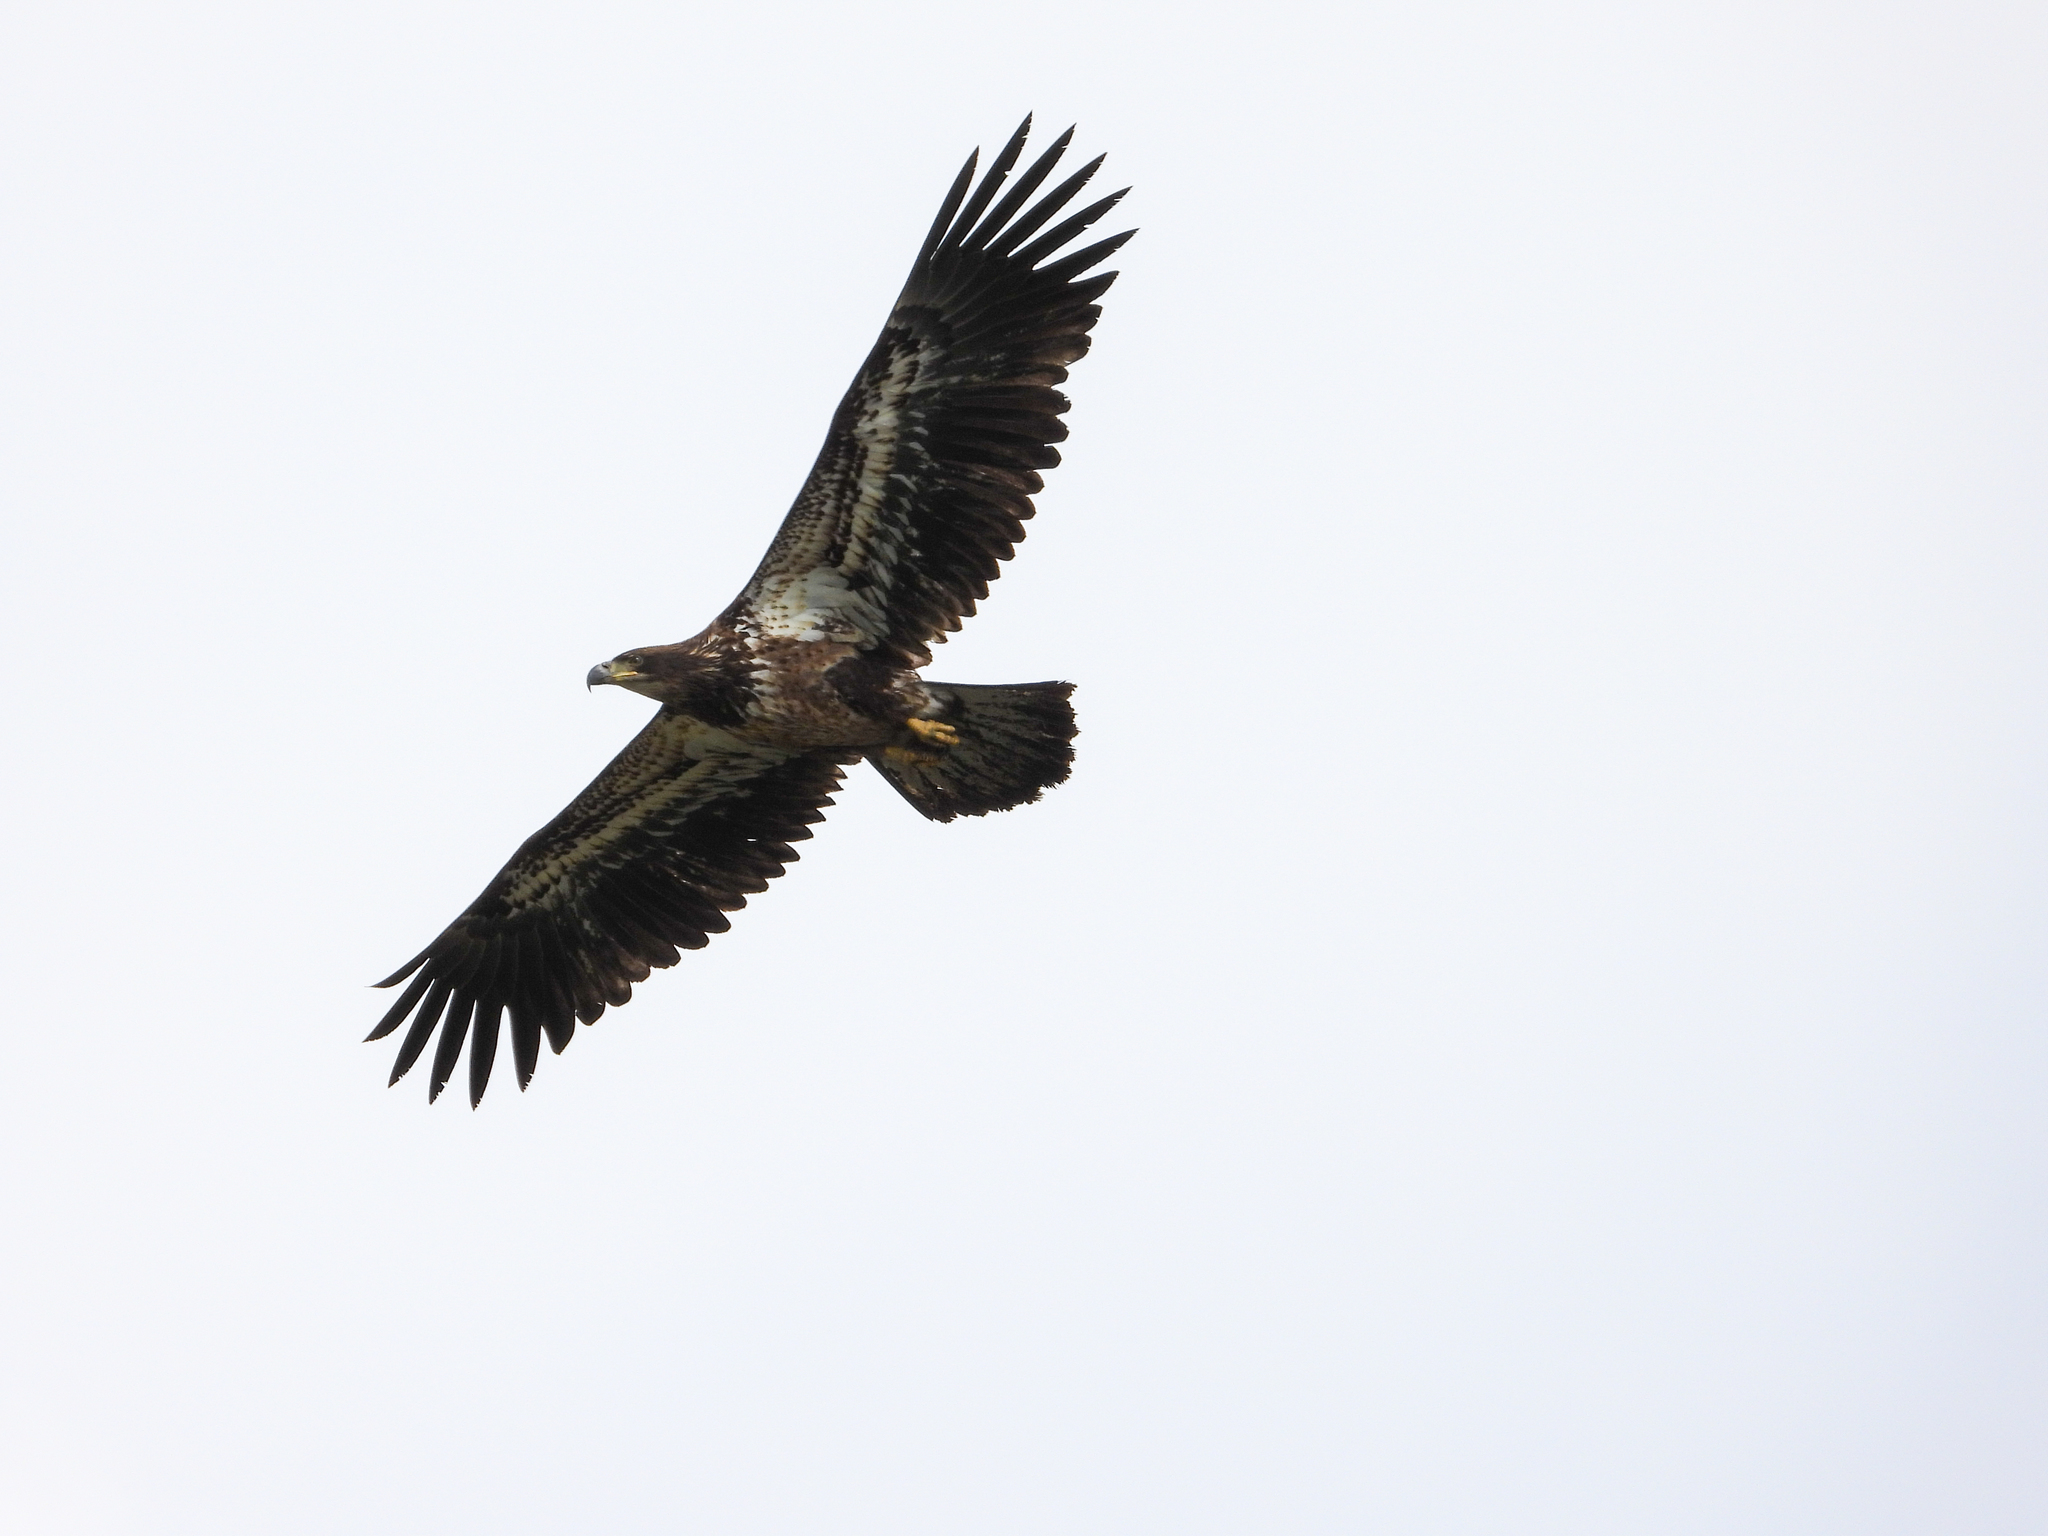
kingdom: Animalia
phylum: Chordata
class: Aves
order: Accipitriformes
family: Accipitridae
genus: Haliaeetus
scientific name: Haliaeetus leucocephalus
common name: Bald eagle
